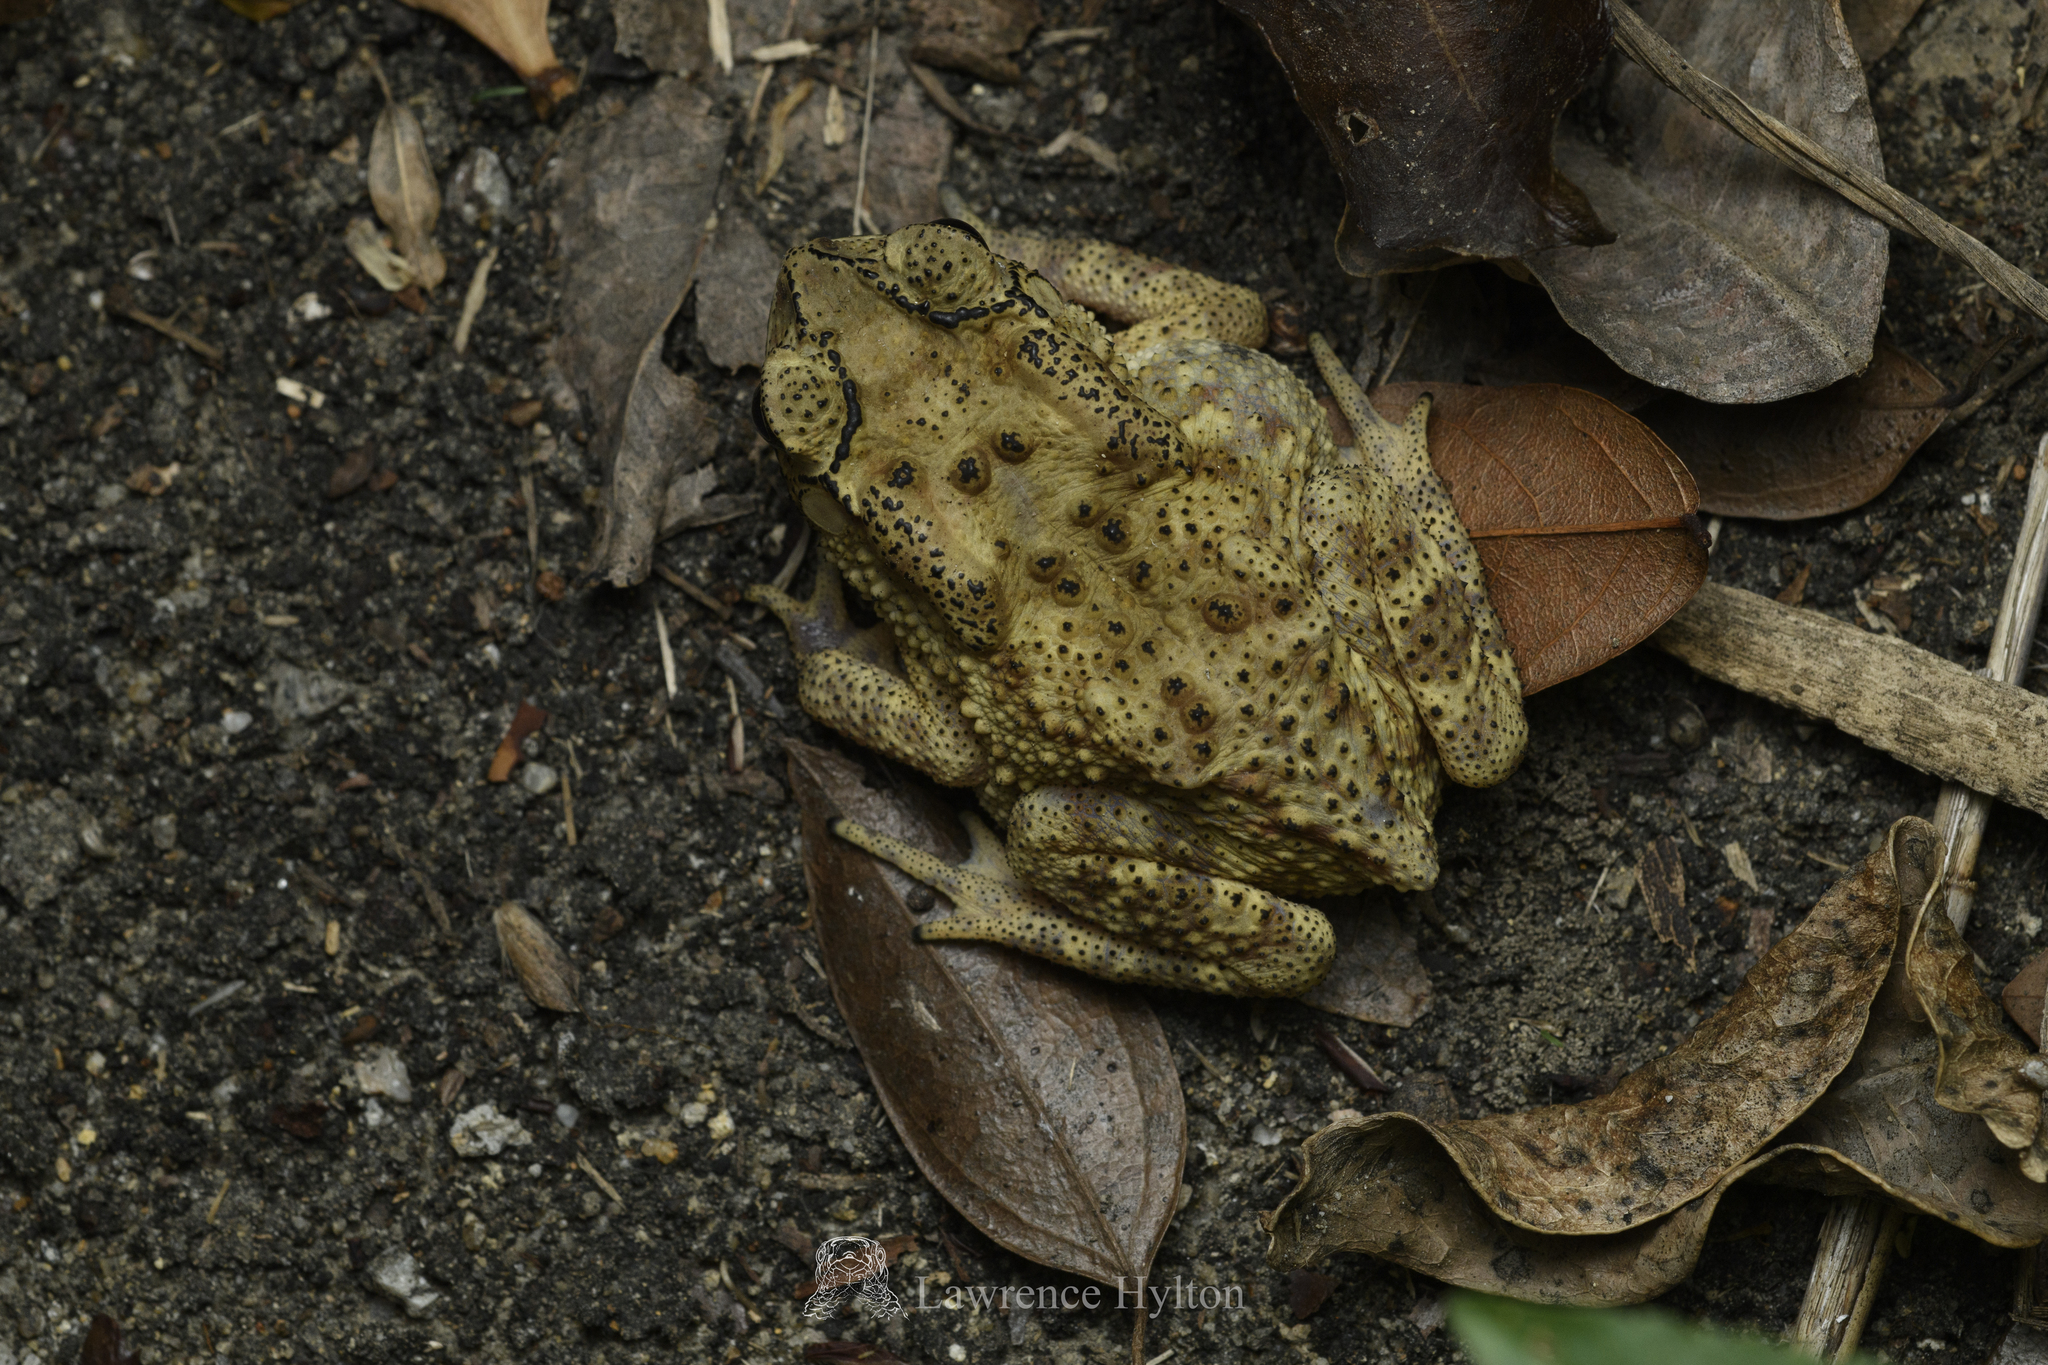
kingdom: Animalia
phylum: Chordata
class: Amphibia
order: Anura
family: Bufonidae
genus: Duttaphrynus
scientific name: Duttaphrynus melanostictus
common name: Common sunda toad
